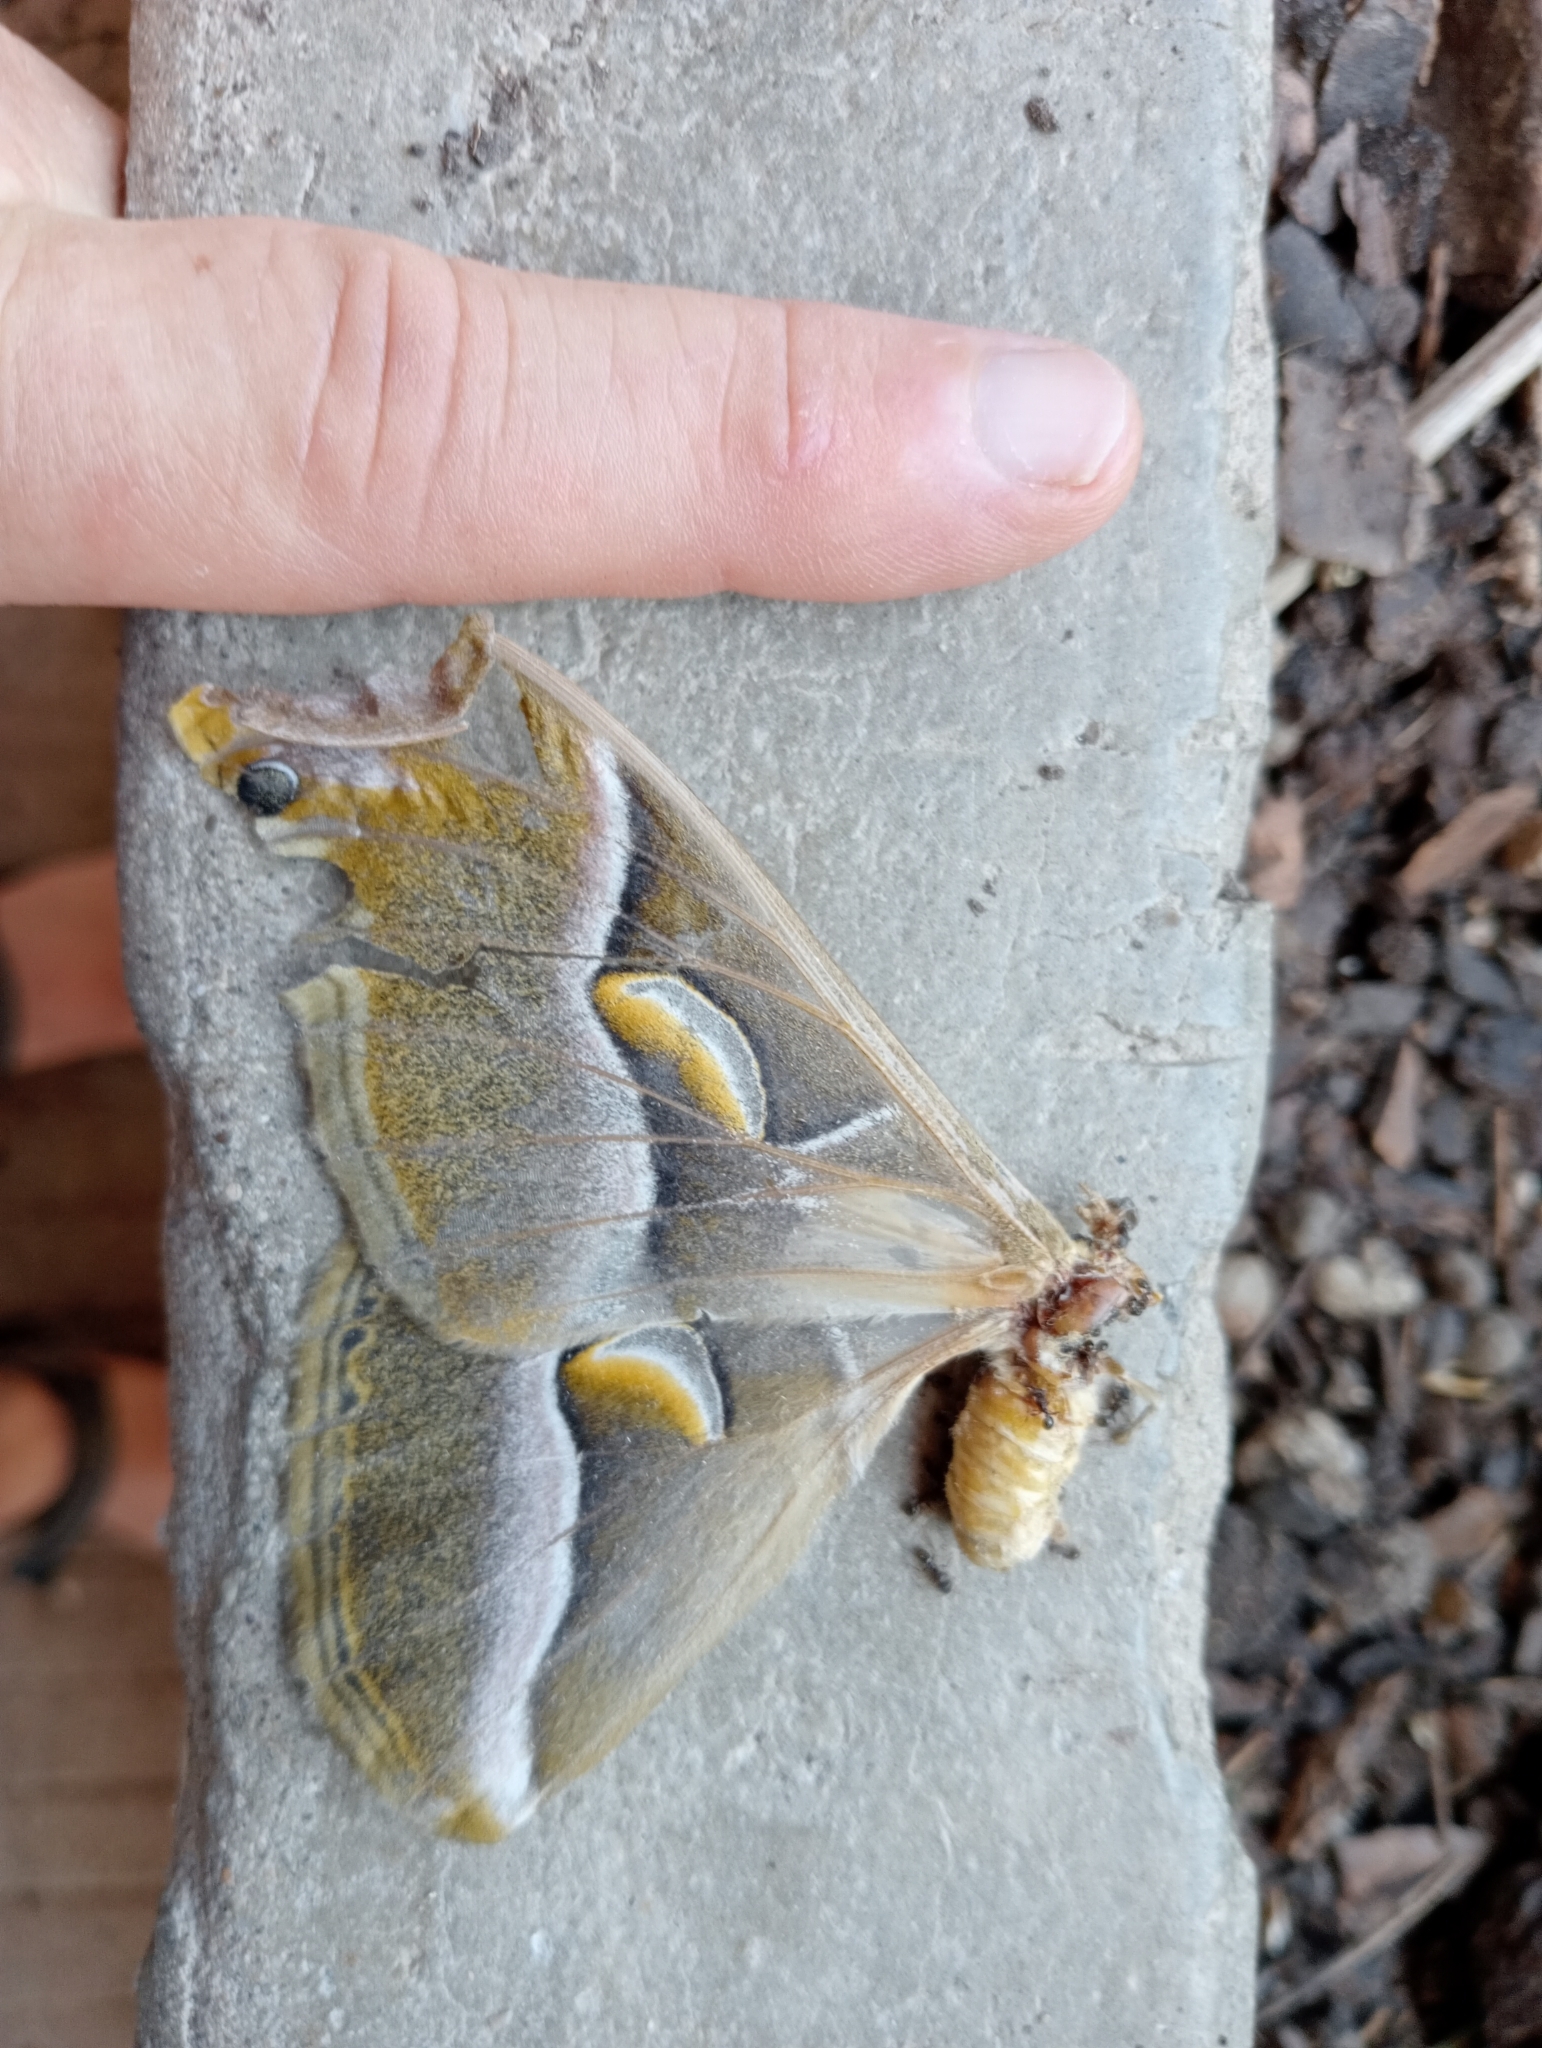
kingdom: Animalia
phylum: Arthropoda
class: Insecta
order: Lepidoptera
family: Saturniidae
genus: Samia
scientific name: Samia cynthia
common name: Ailanthus silkmoth
